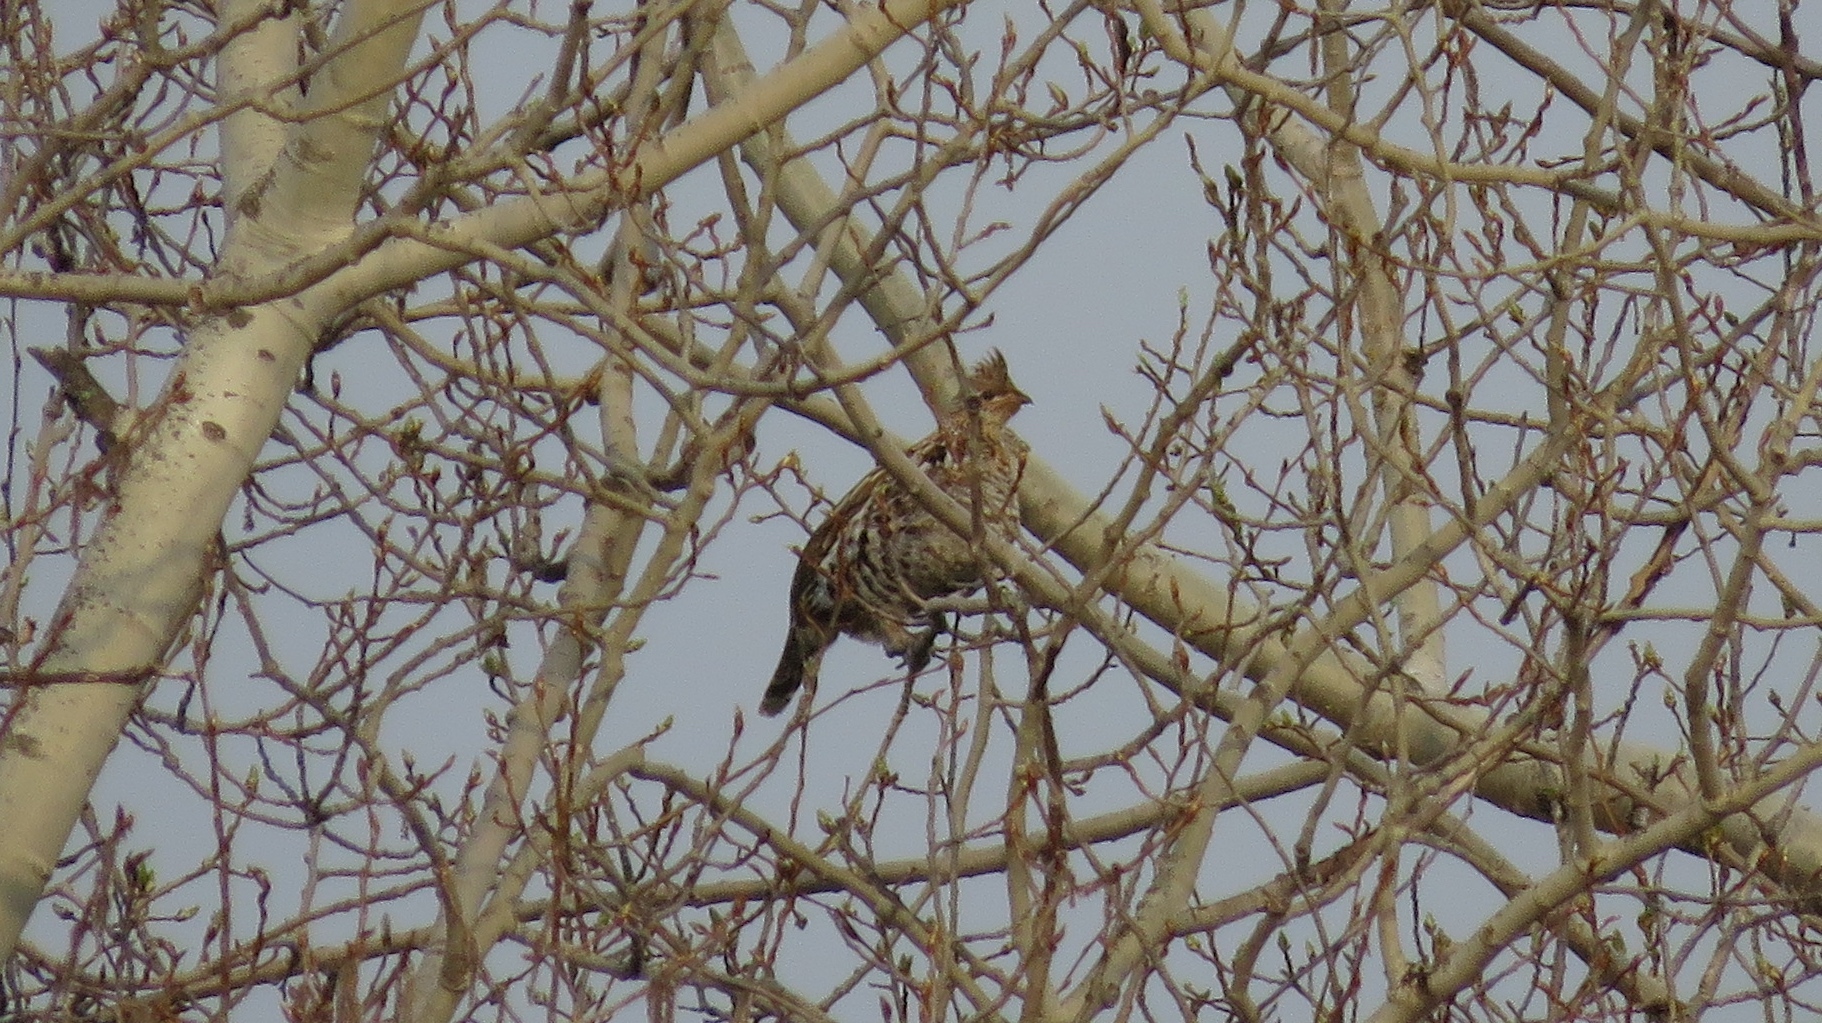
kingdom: Animalia
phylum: Chordata
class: Aves
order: Galliformes
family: Phasianidae
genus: Bonasa
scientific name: Bonasa umbellus
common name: Ruffed grouse
